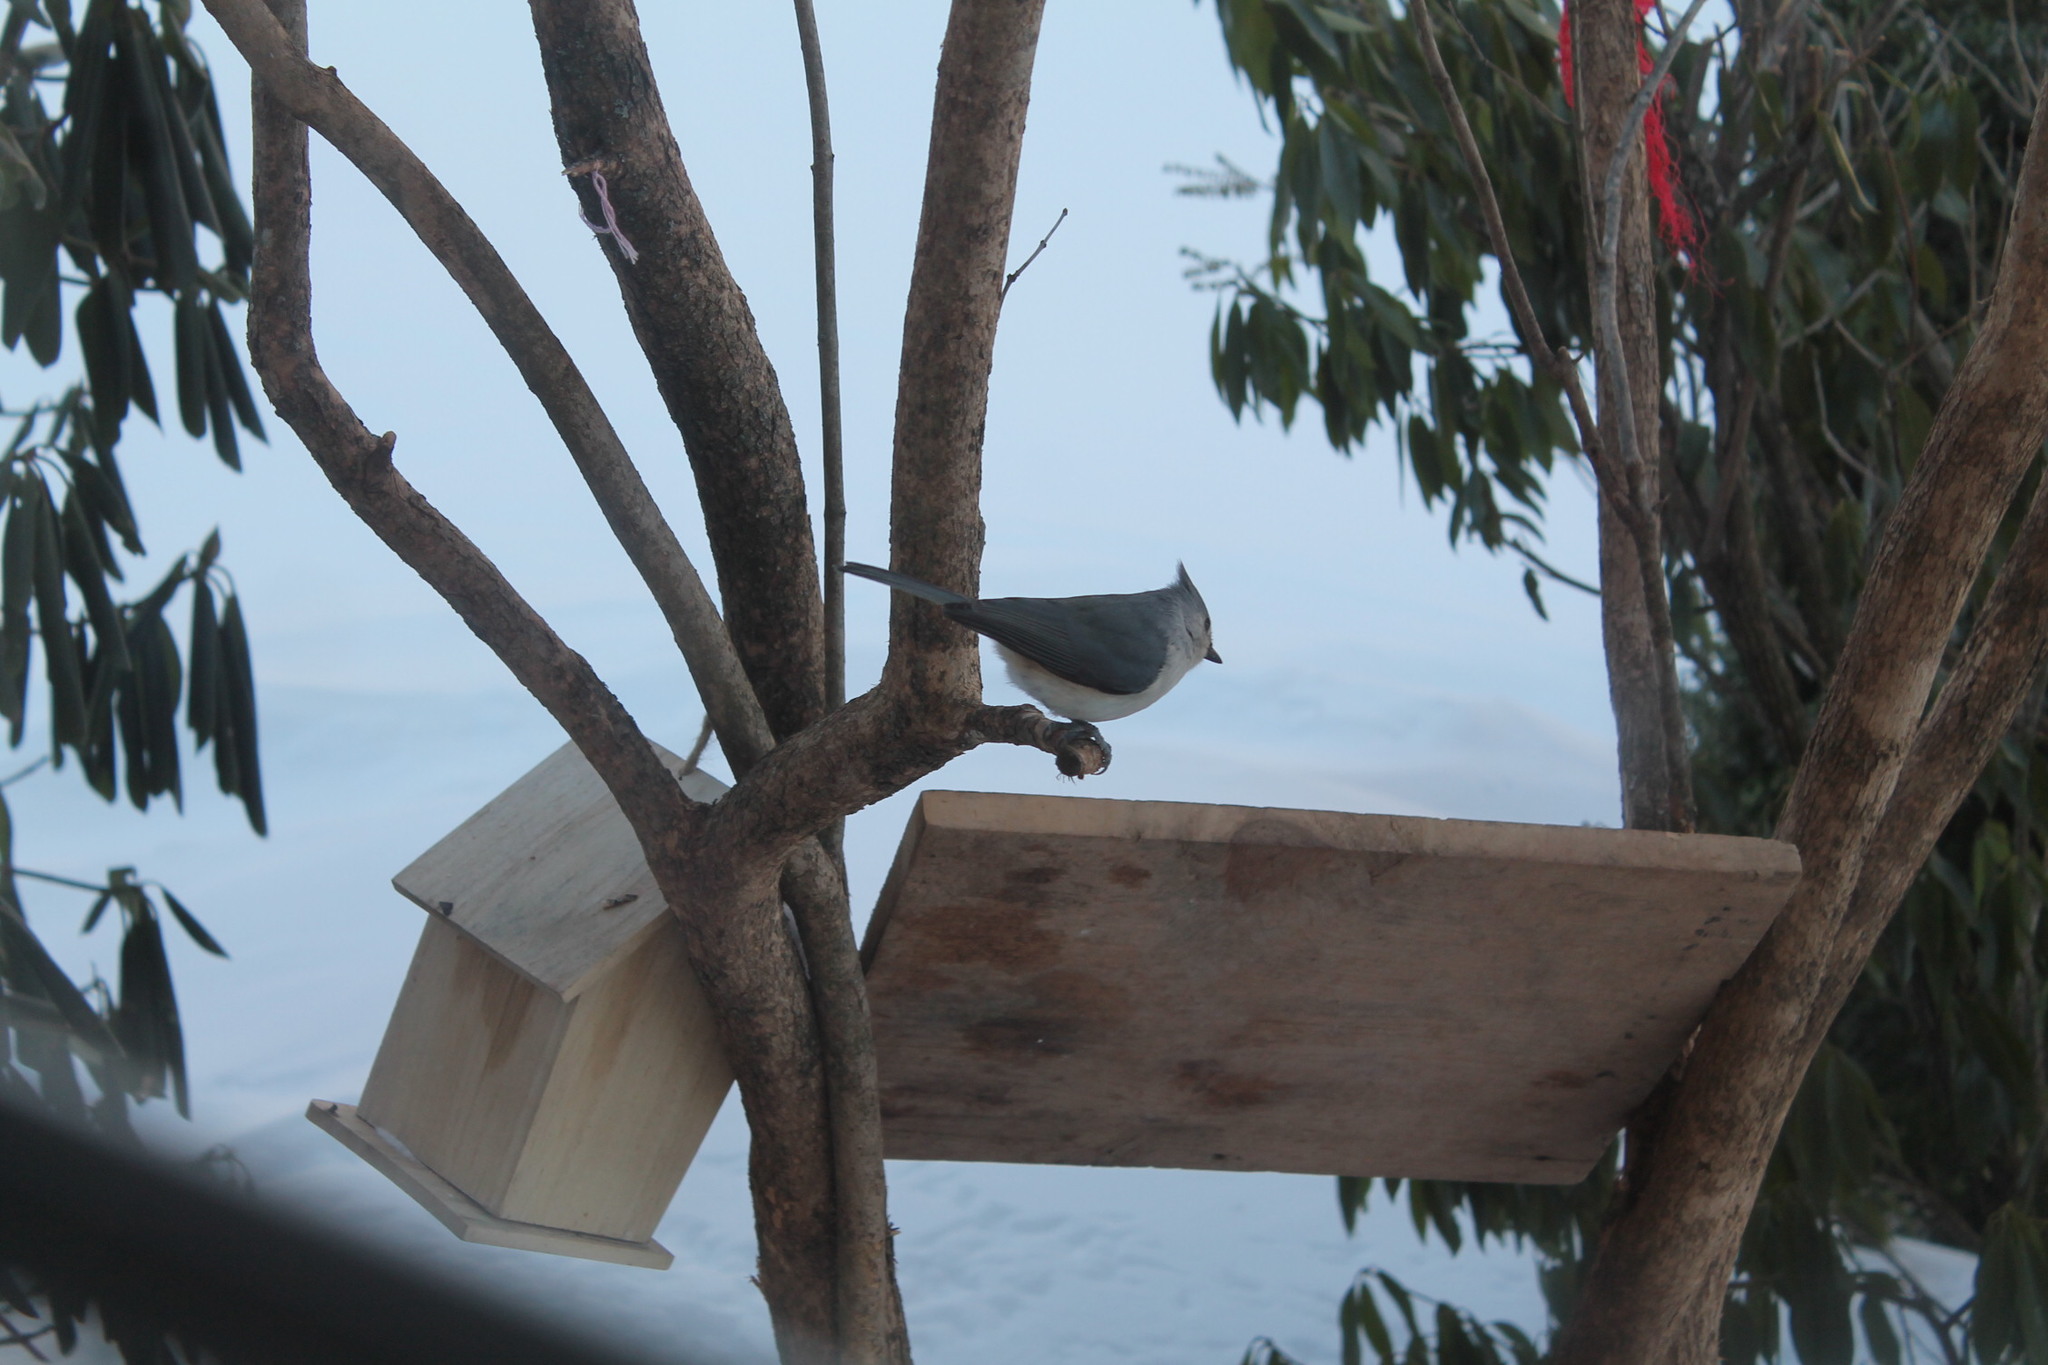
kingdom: Animalia
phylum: Chordata
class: Aves
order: Passeriformes
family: Paridae
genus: Baeolophus
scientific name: Baeolophus bicolor
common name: Tufted titmouse
